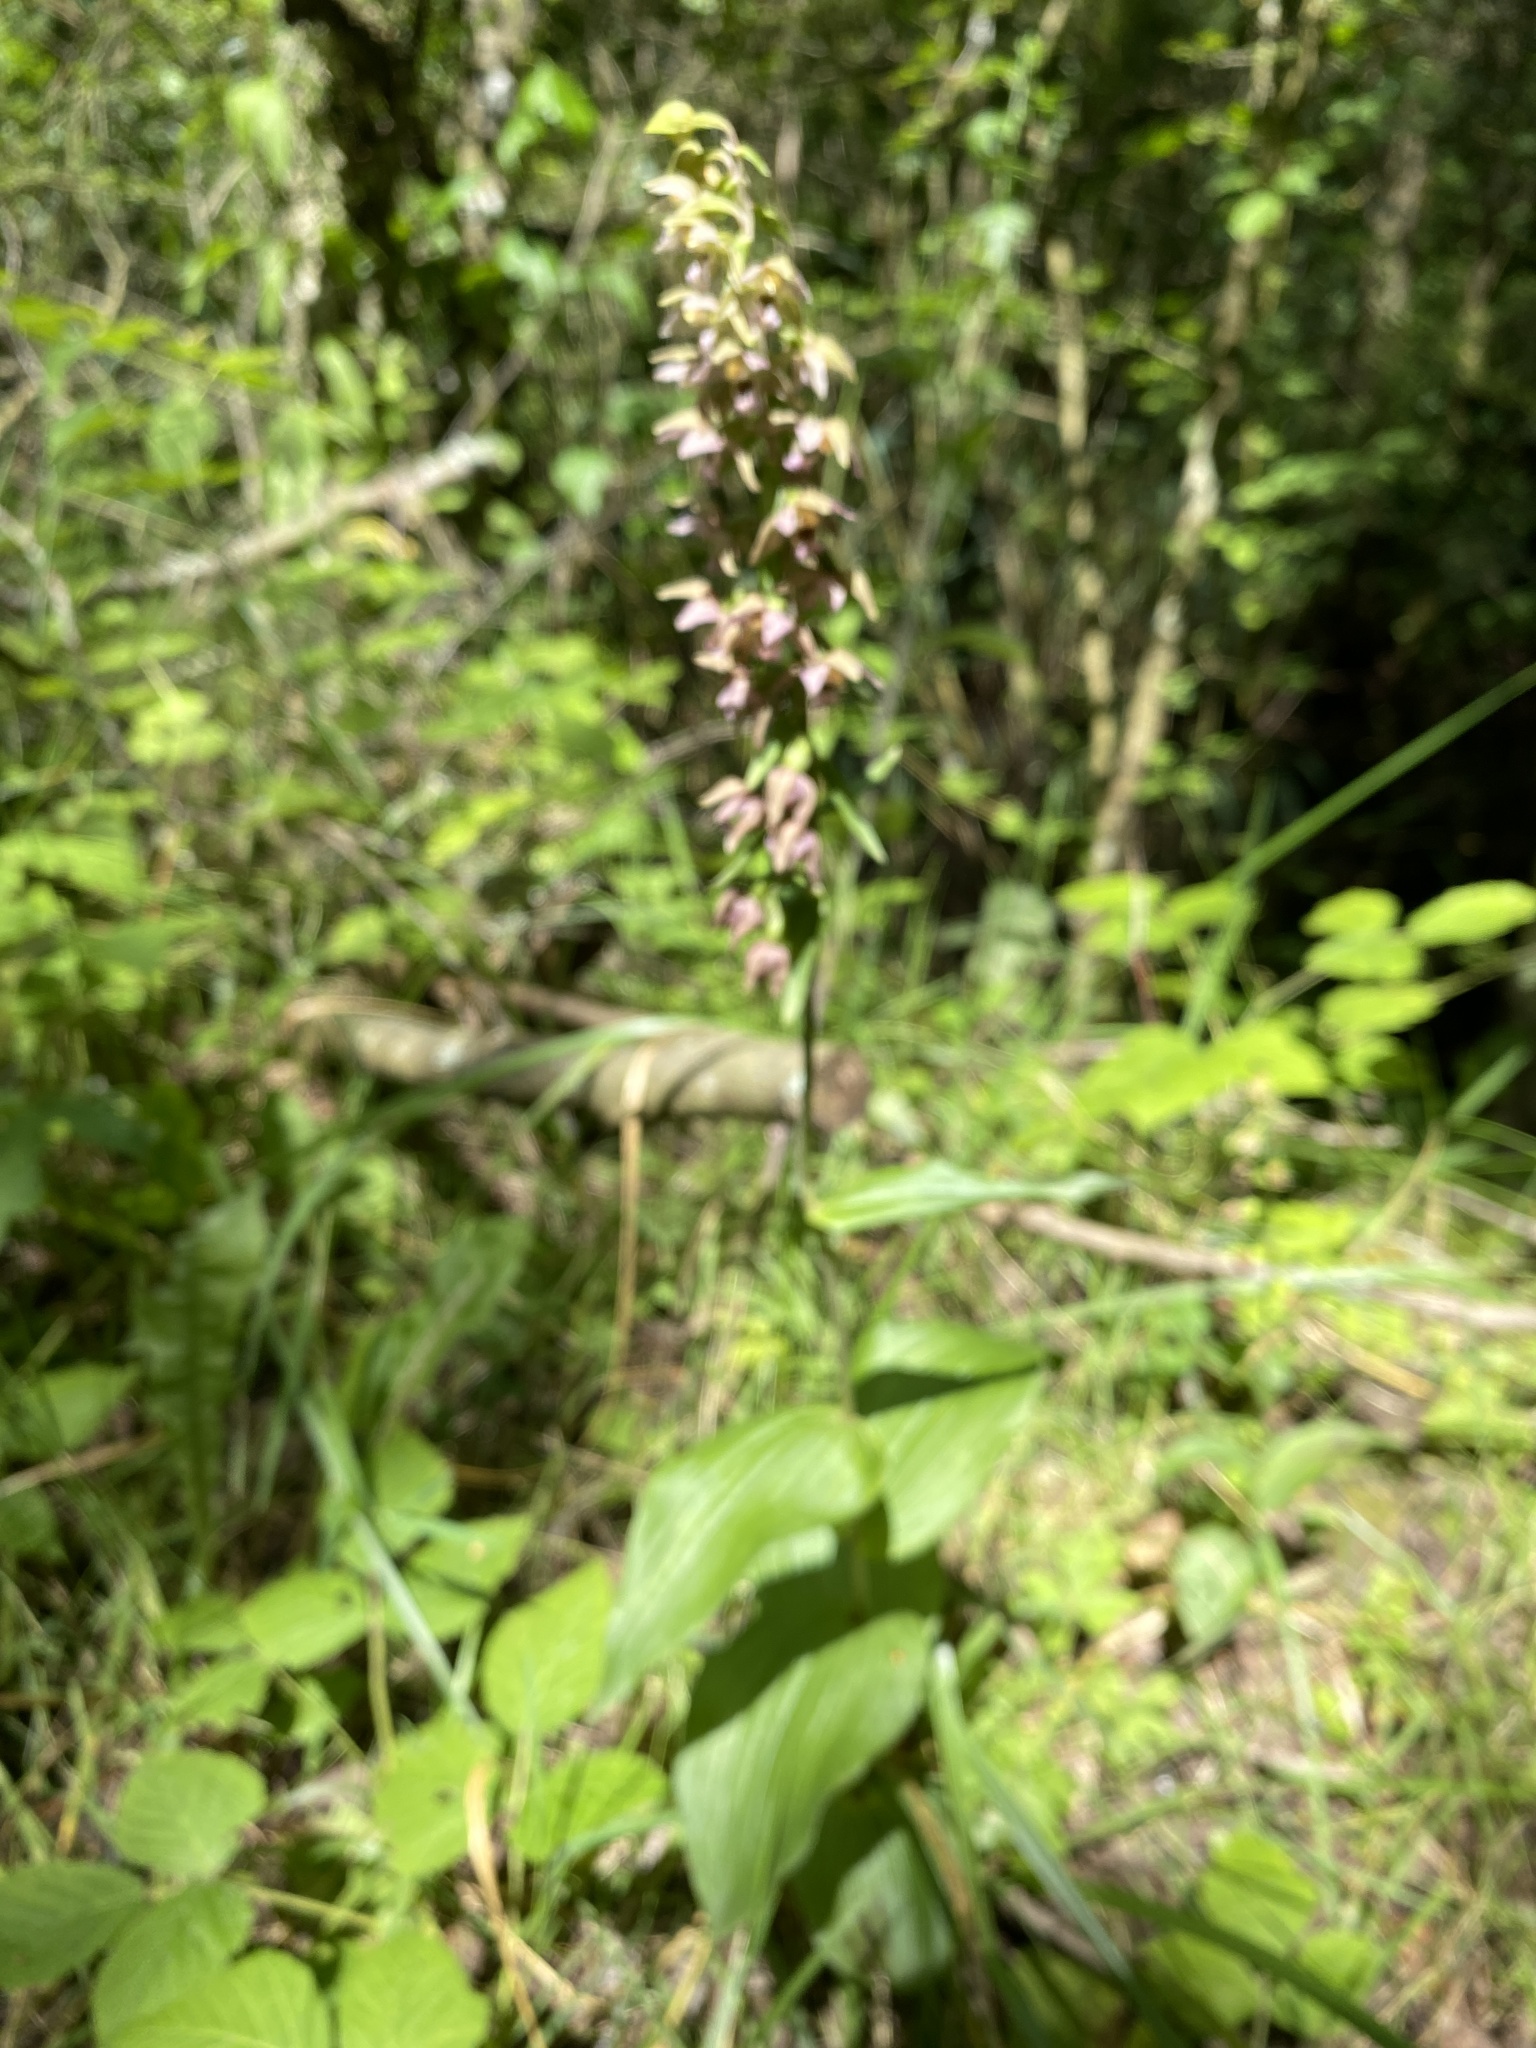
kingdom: Plantae
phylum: Tracheophyta
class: Liliopsida
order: Asparagales
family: Orchidaceae
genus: Epipactis
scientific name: Epipactis helleborine
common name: Broad-leaved helleborine
